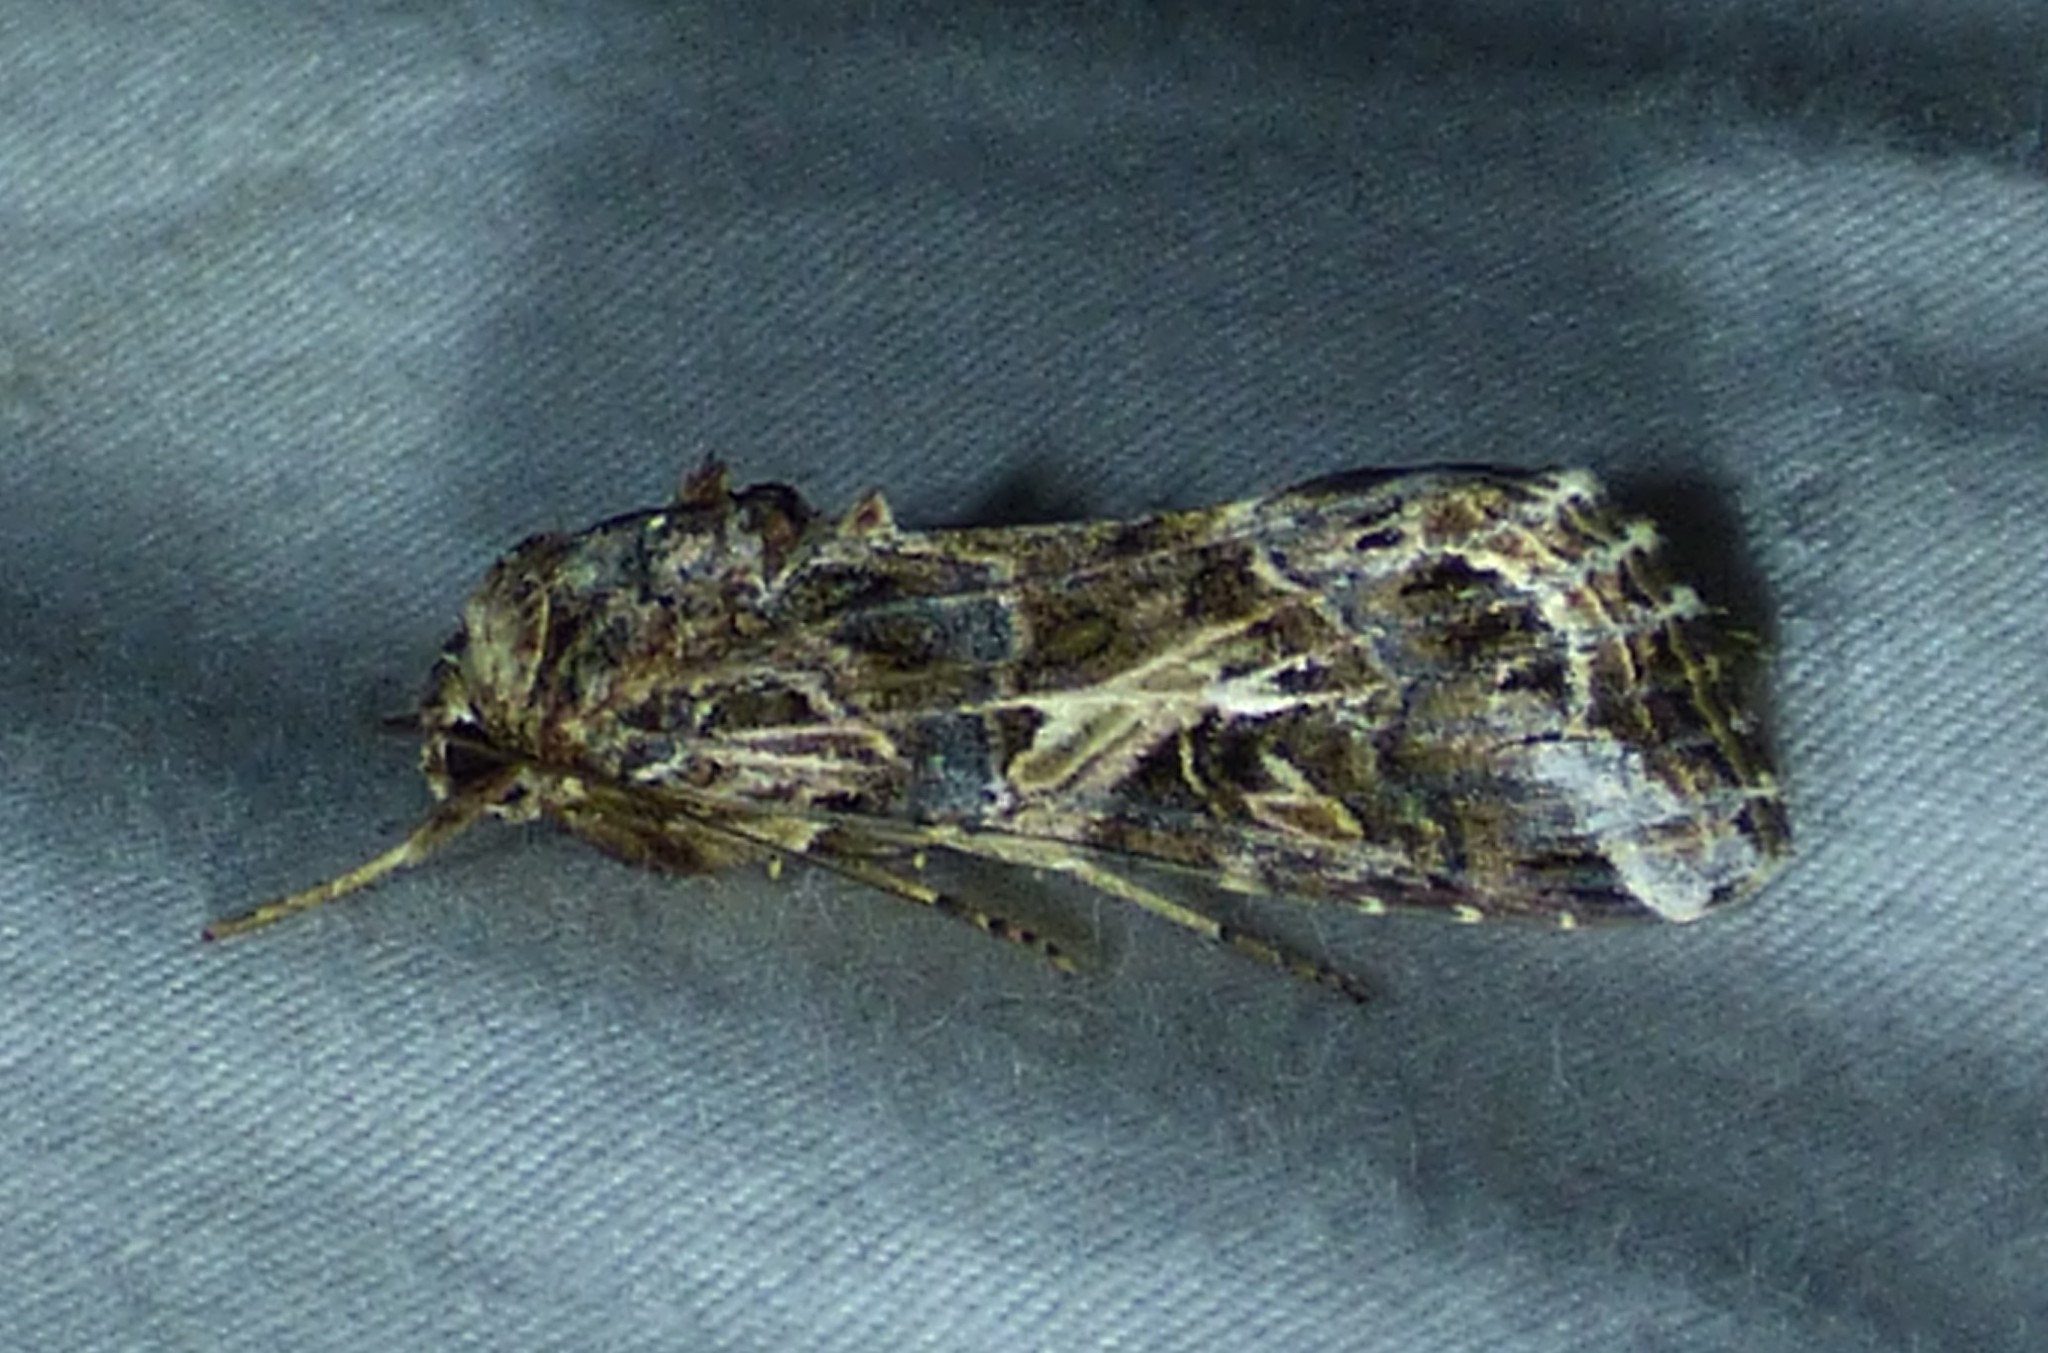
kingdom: Animalia
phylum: Arthropoda
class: Insecta
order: Lepidoptera
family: Noctuidae
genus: Spodoptera
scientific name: Spodoptera ornithogalli
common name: Yellow-striped armyworm
